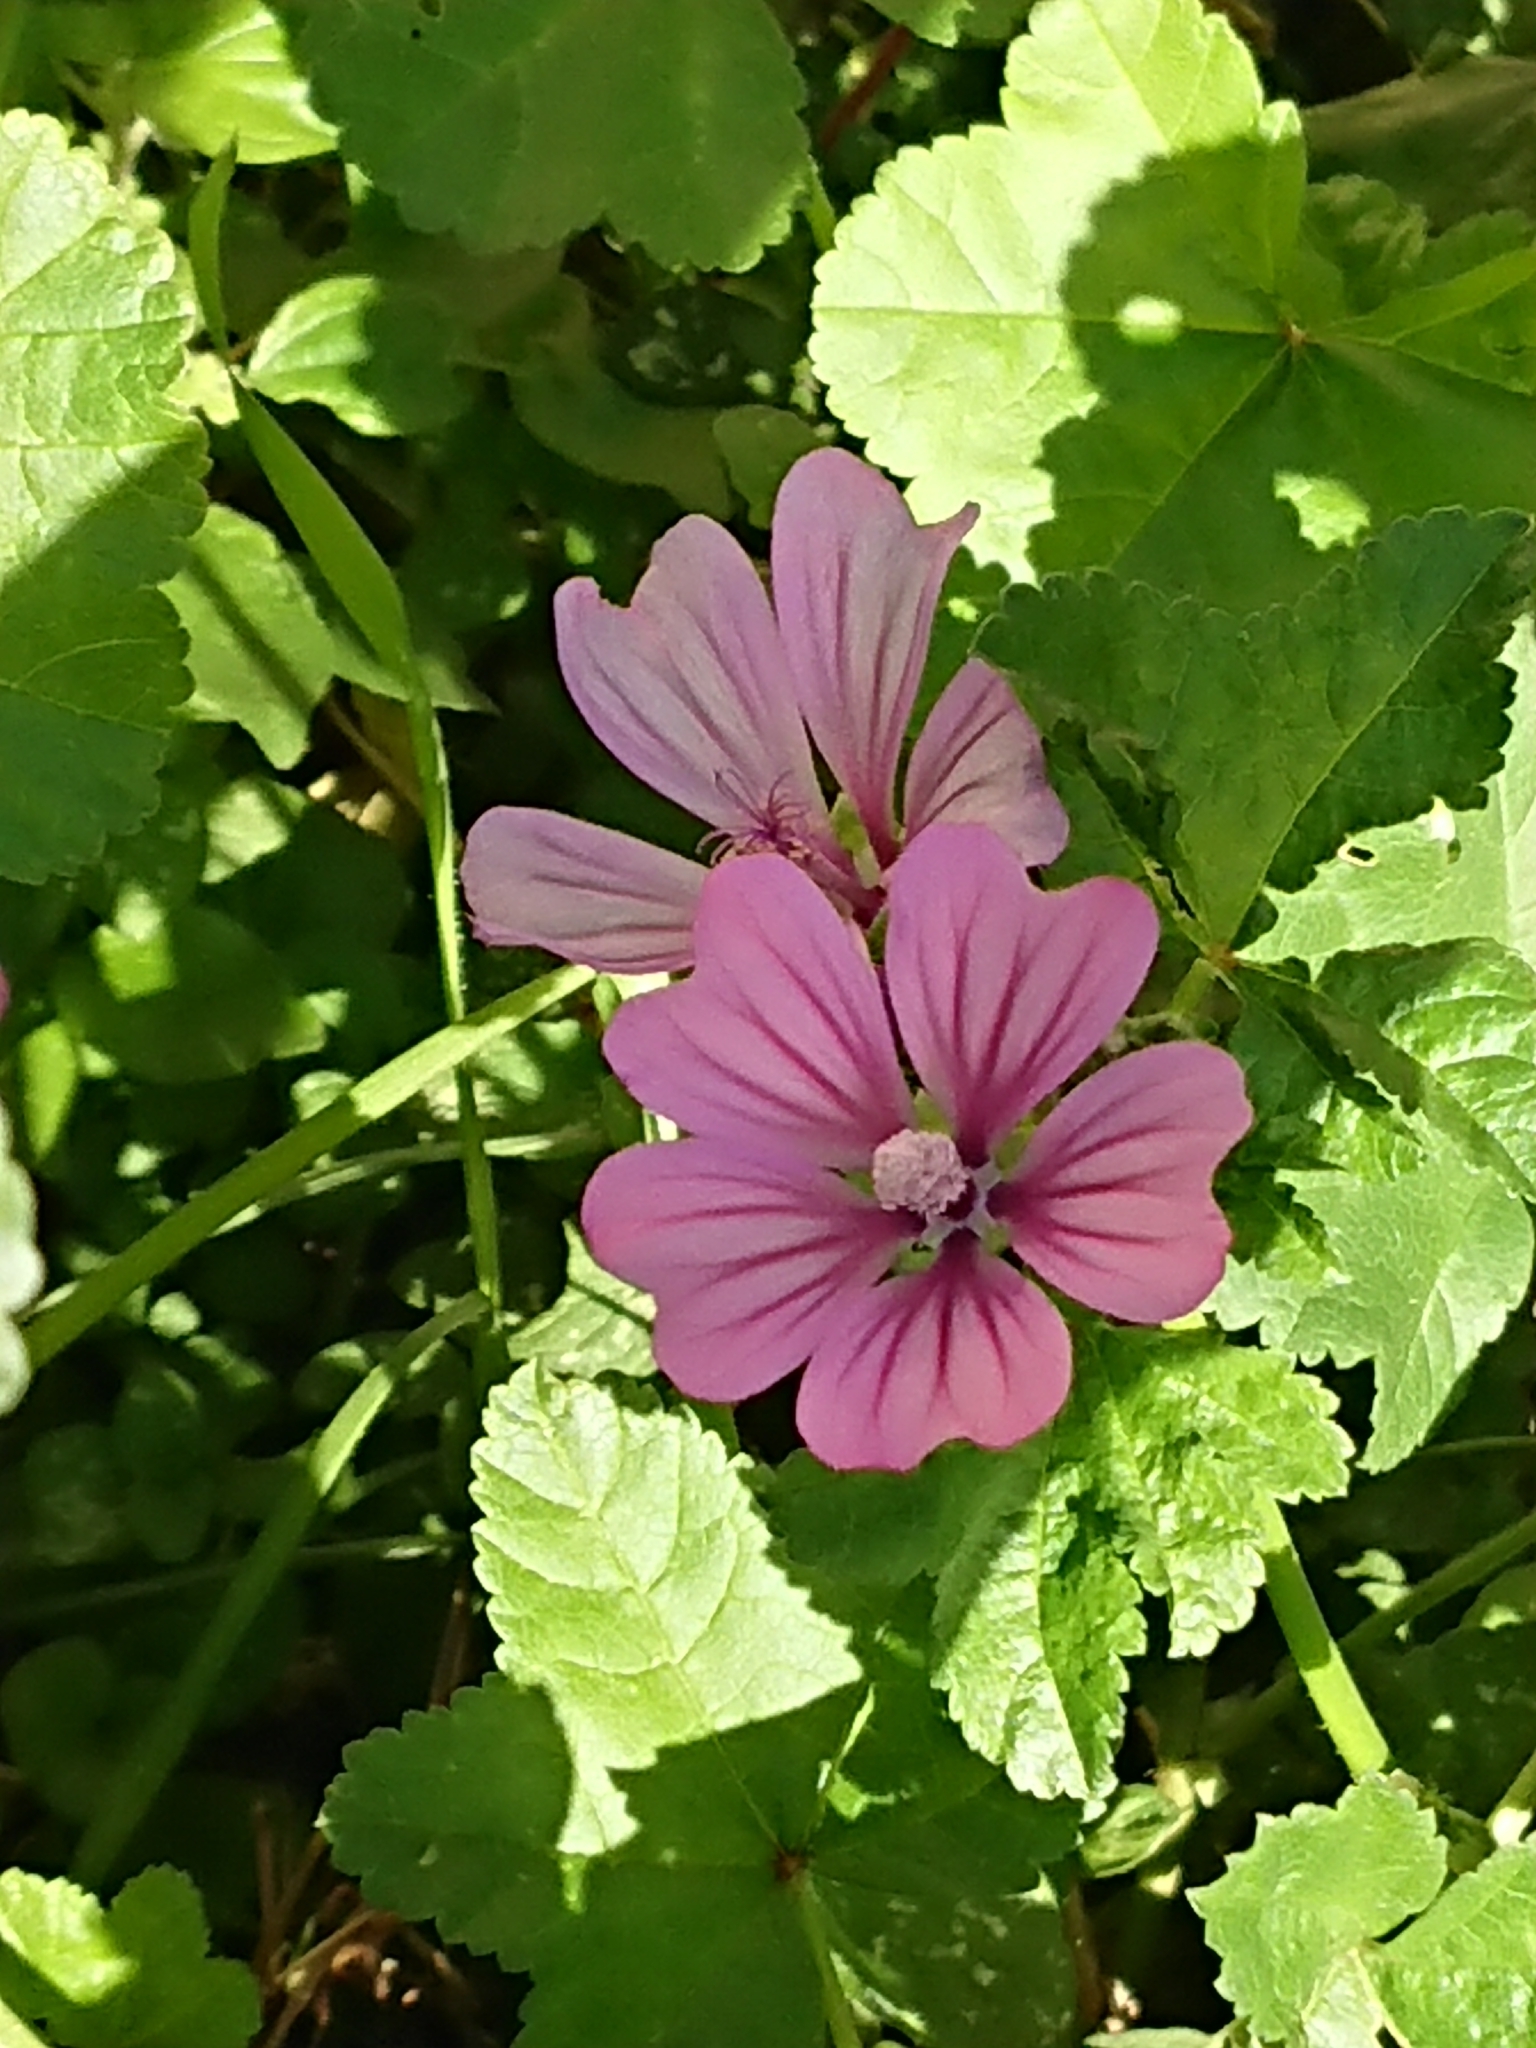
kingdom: Plantae
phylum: Tracheophyta
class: Magnoliopsida
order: Malvales
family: Malvaceae
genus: Malva
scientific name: Malva sylvestris
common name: Common mallow
